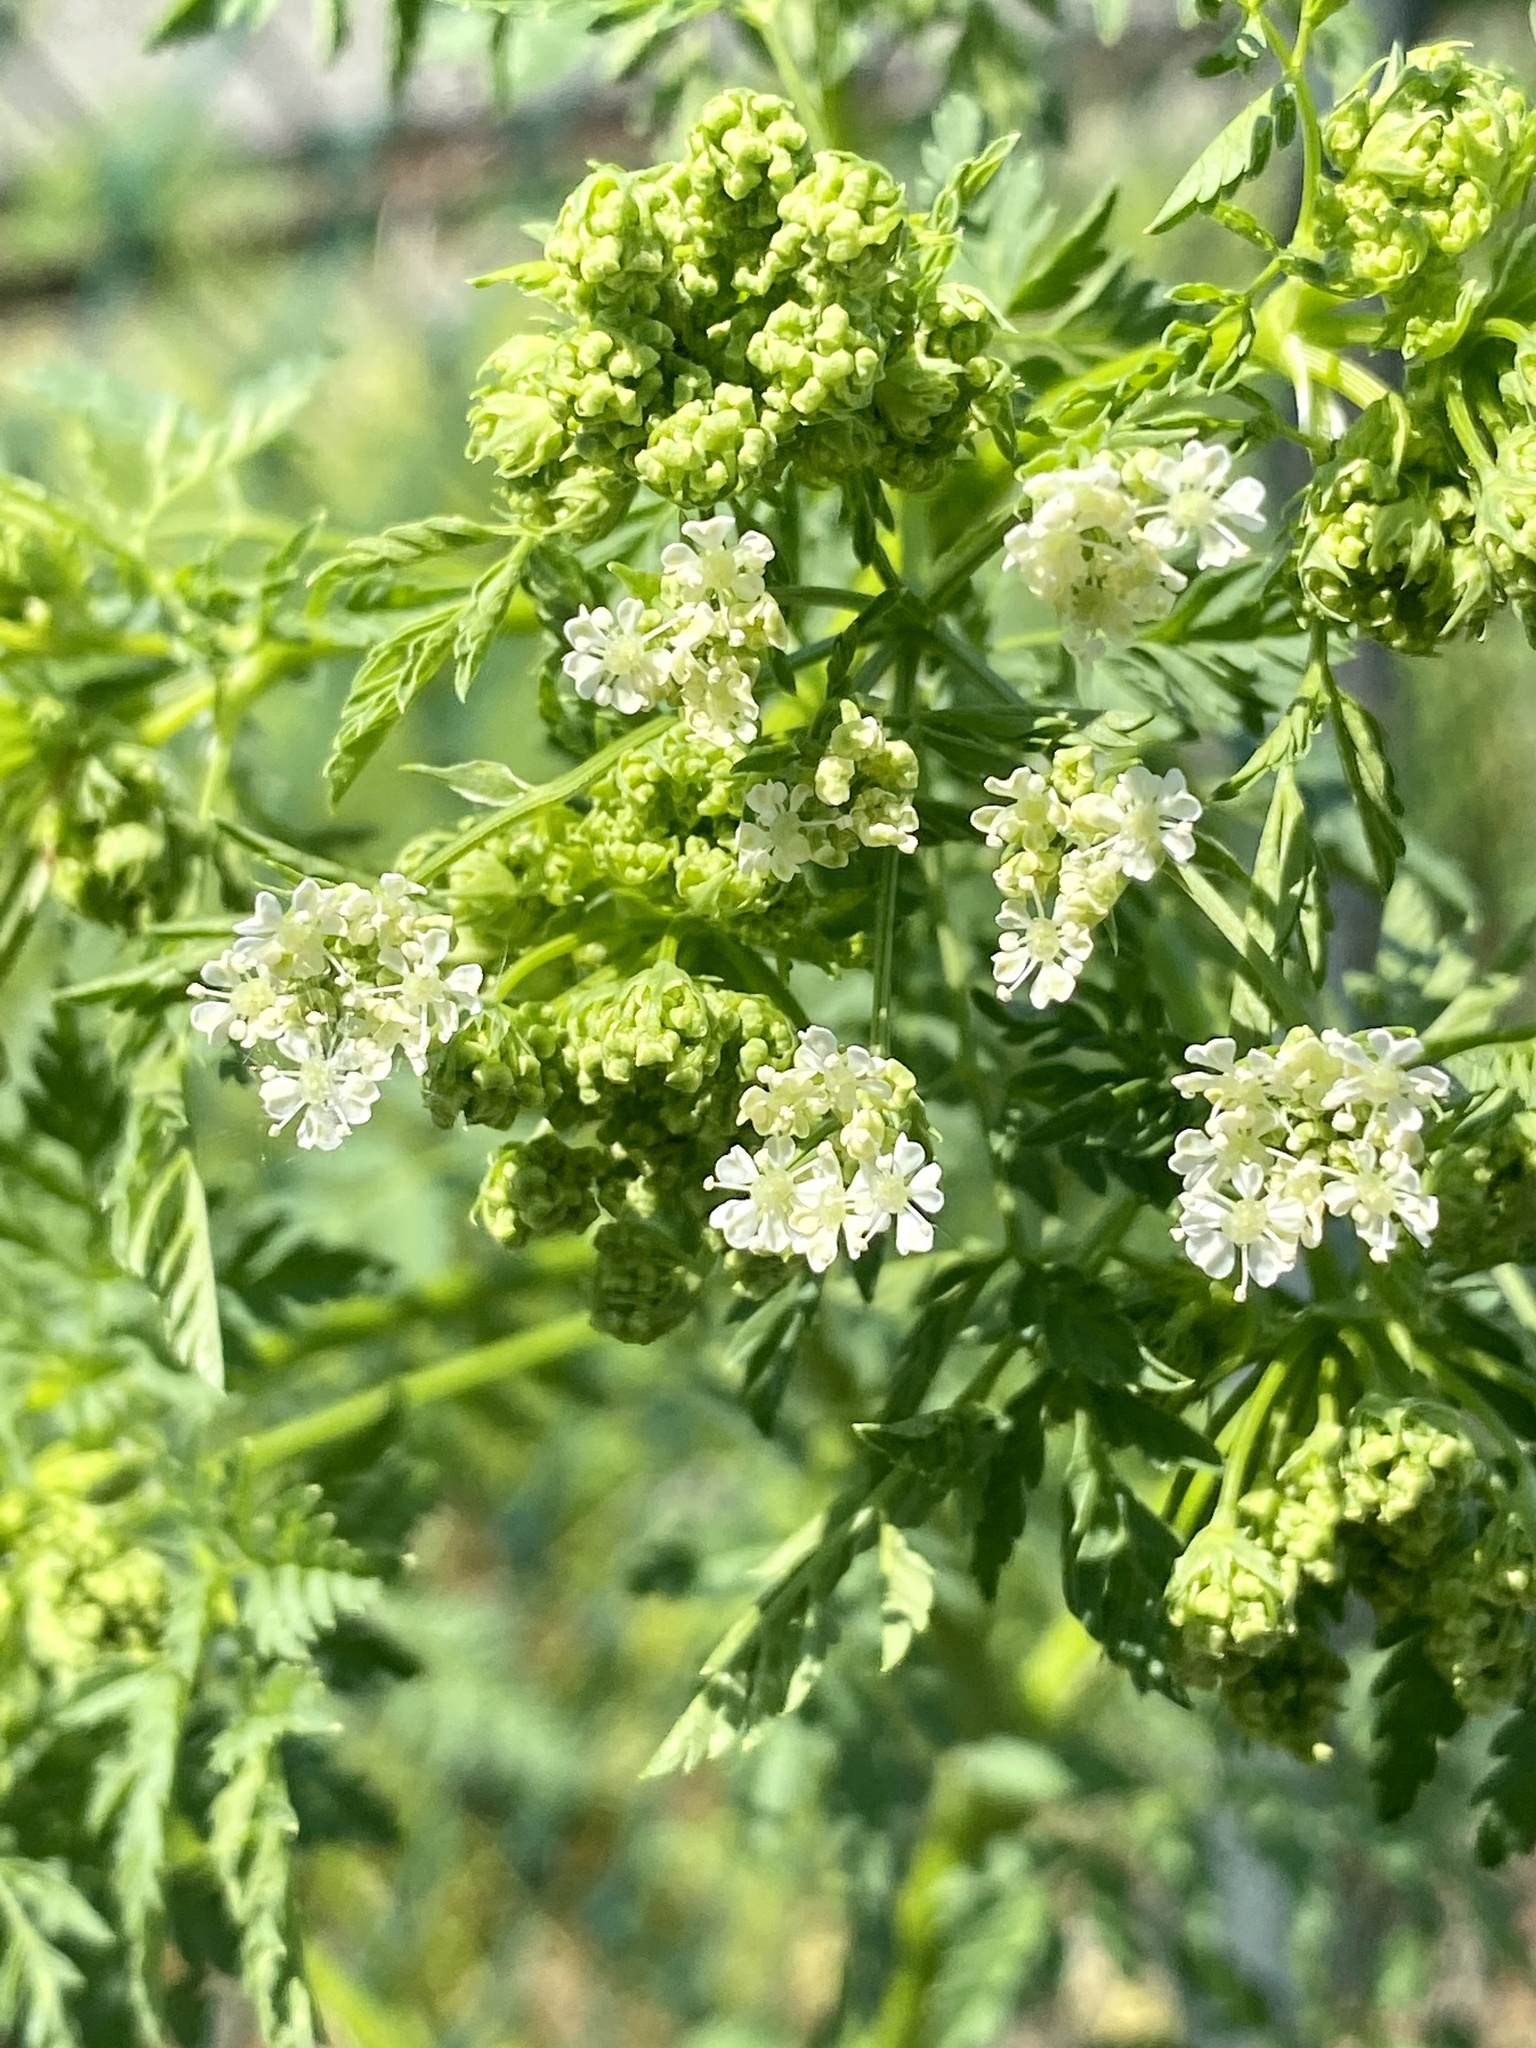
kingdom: Plantae
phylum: Tracheophyta
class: Magnoliopsida
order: Apiales
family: Apiaceae
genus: Conium
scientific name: Conium maculatum
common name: Hemlock
